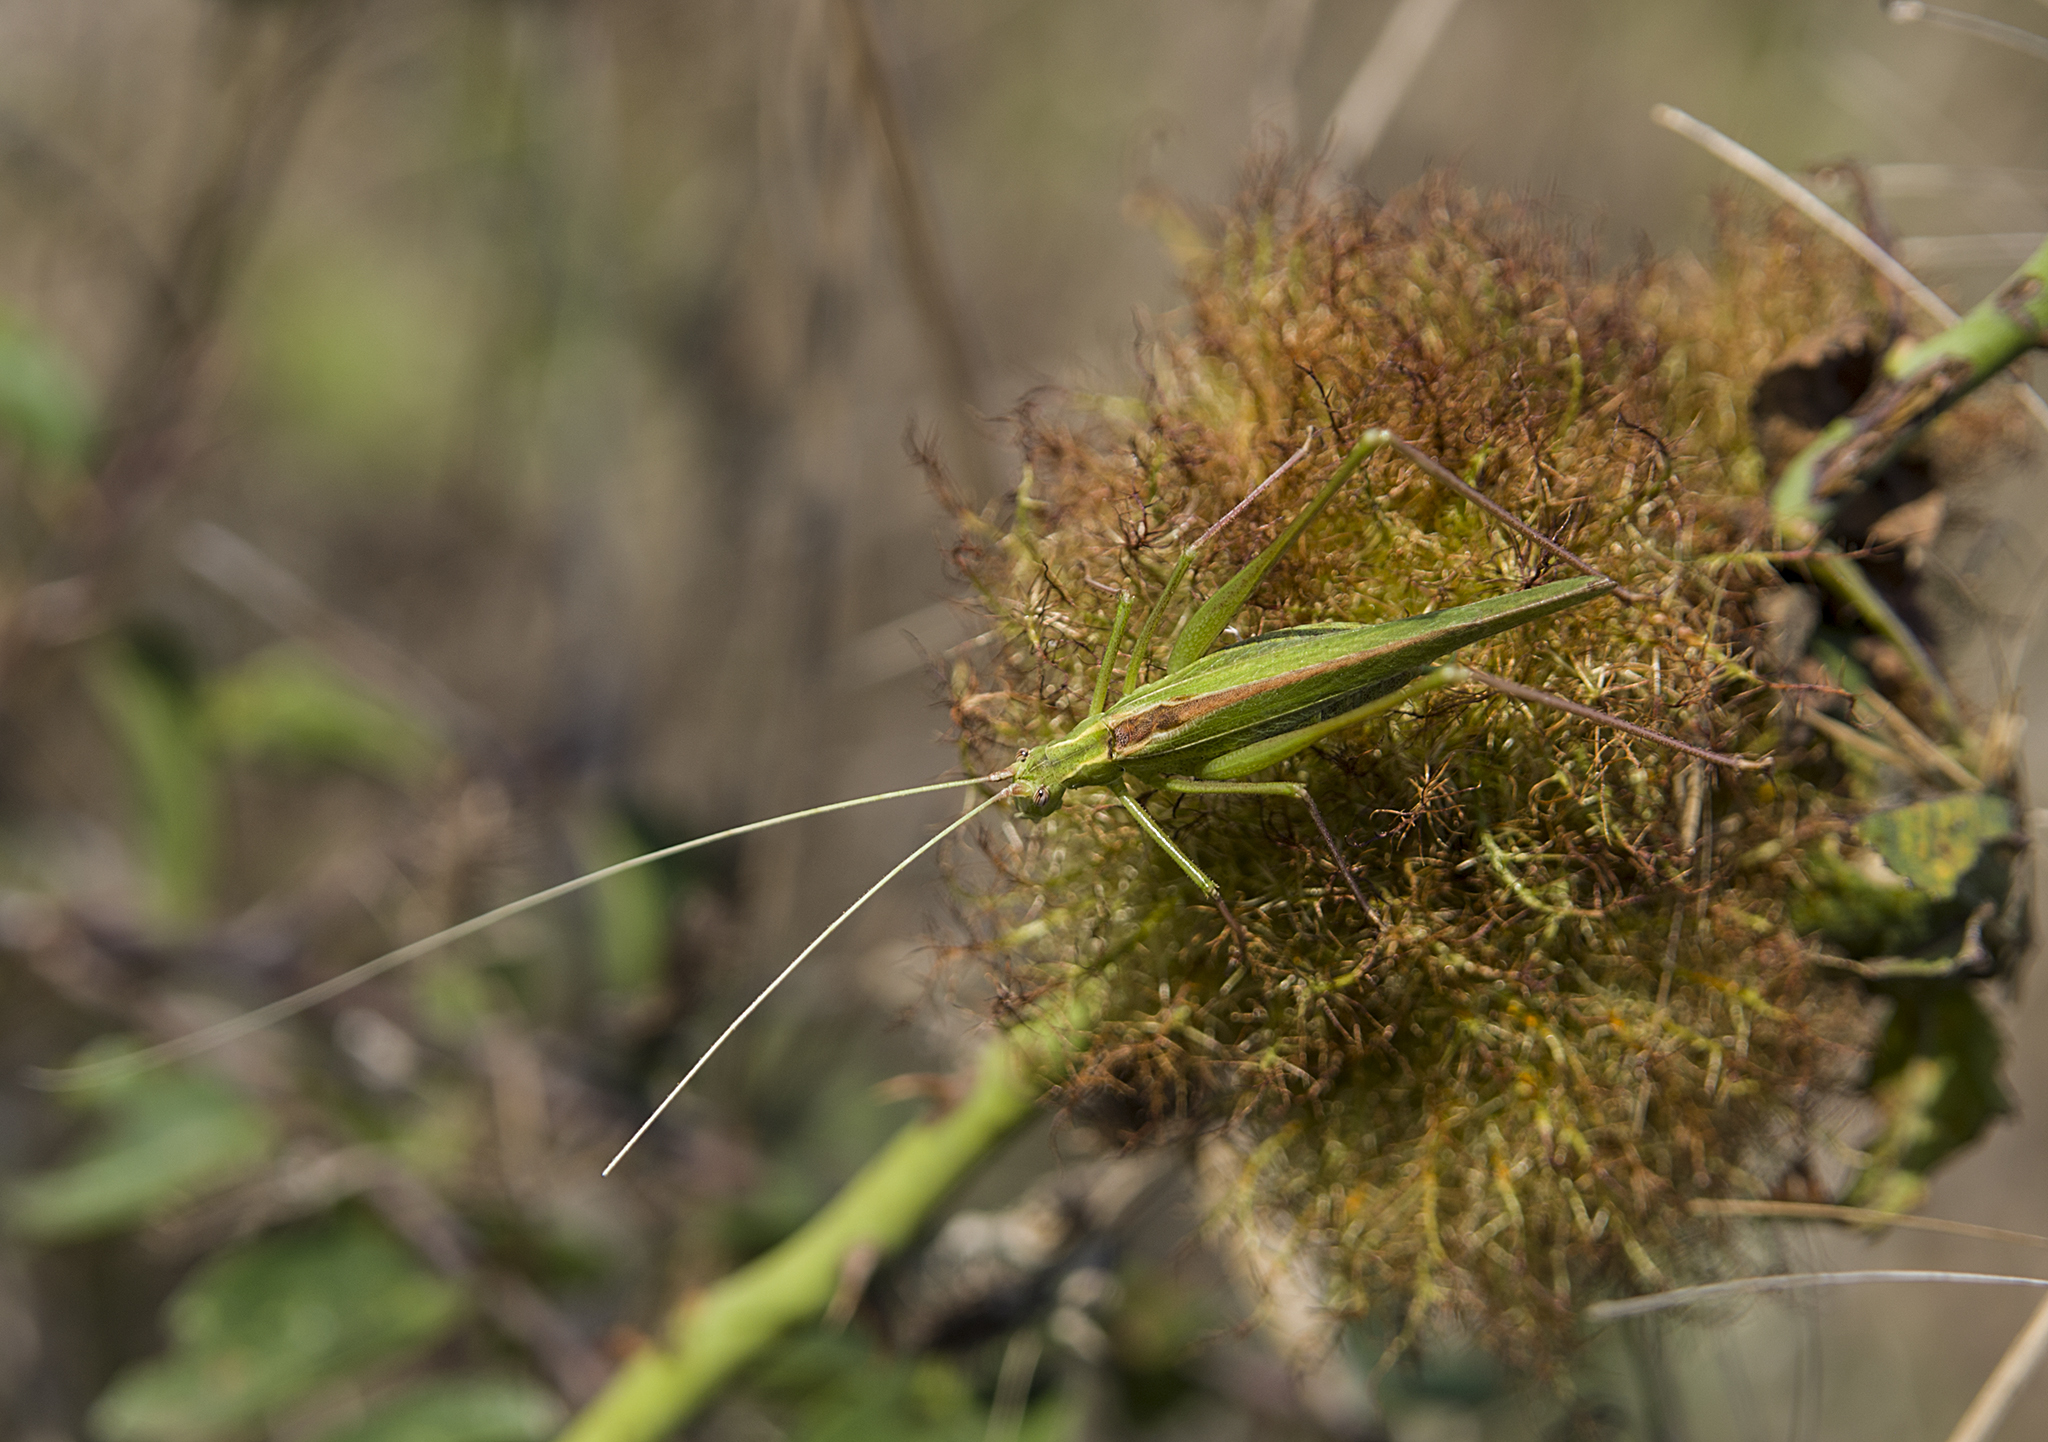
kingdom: Animalia
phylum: Arthropoda
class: Insecta
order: Orthoptera
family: Tettigoniidae
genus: Tylopsis
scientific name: Tylopsis lilifolia
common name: Lily bush-cricket
